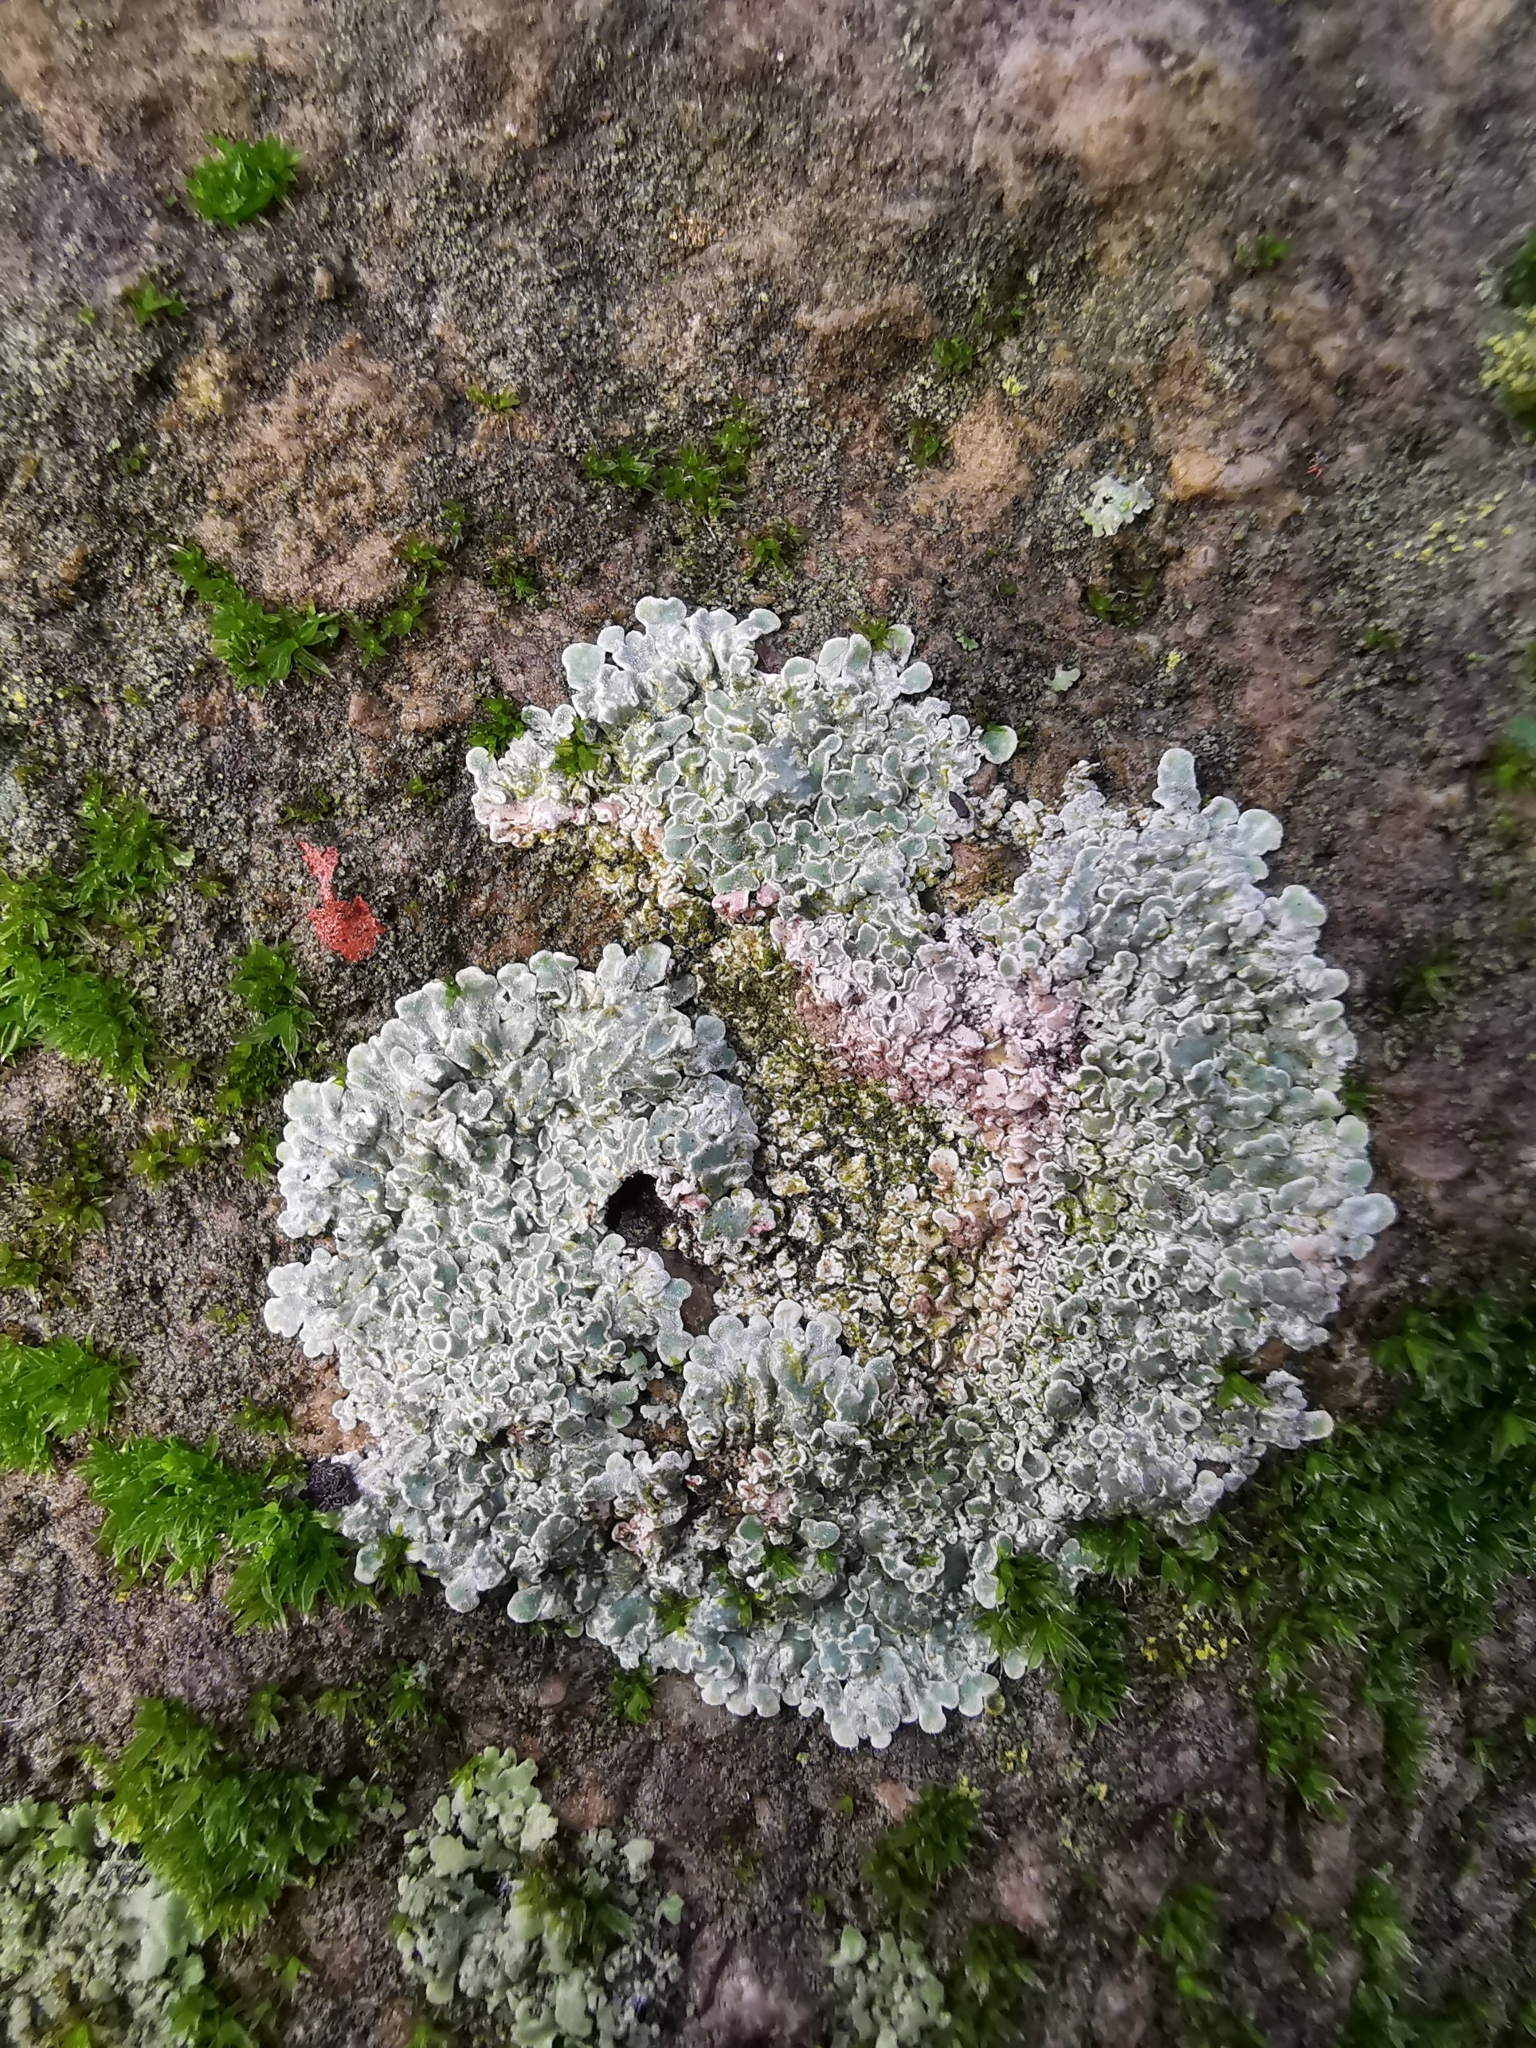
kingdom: Fungi
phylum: Ascomycota
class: Lecanoromycetes
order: Lecanorales
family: Lecanoraceae
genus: Protoparmeliopsis
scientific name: Protoparmeliopsis muralis
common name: Stonewall rim lichen
